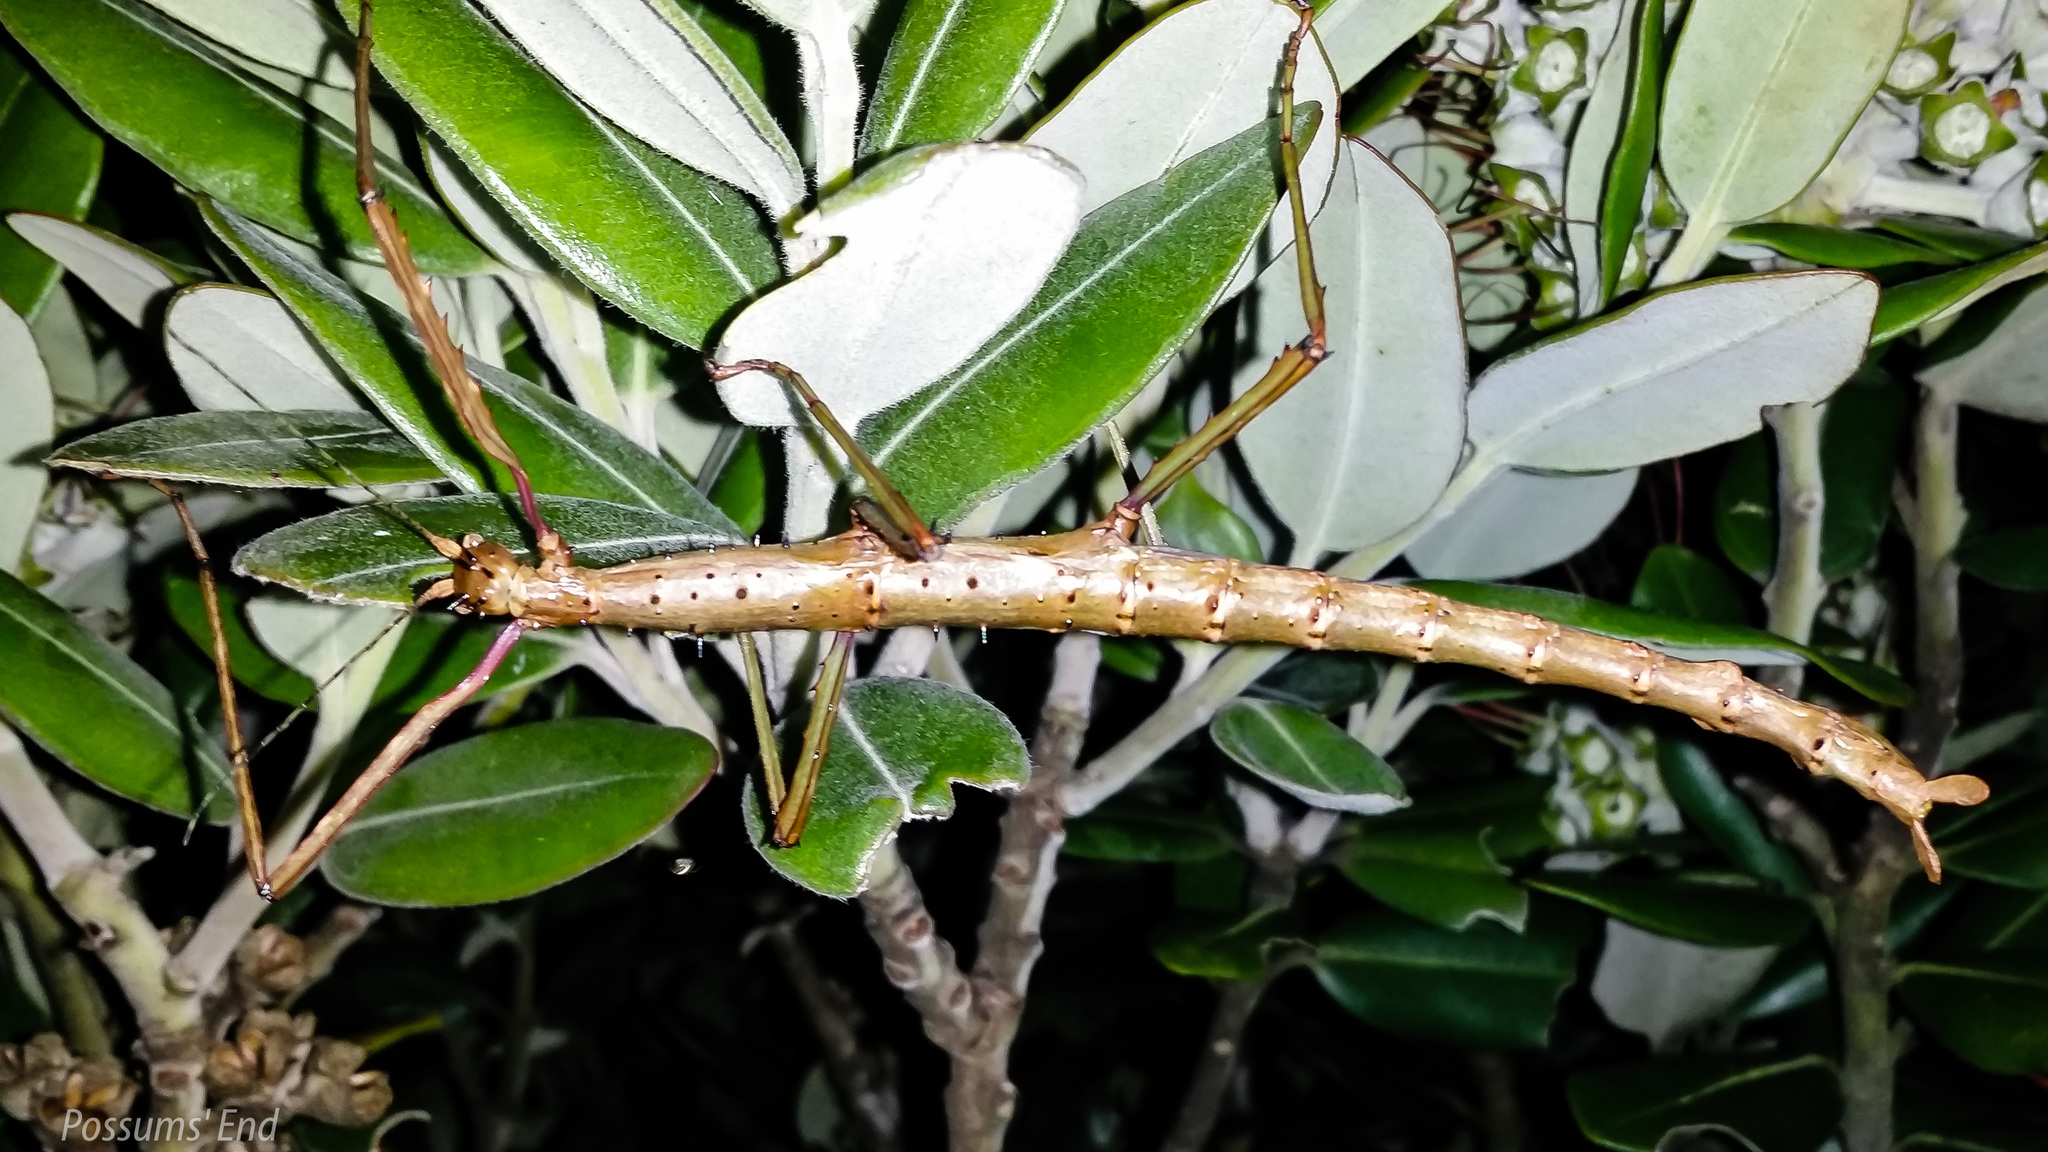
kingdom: Animalia
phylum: Arthropoda
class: Insecta
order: Phasmida
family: Phasmatidae
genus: Acanthoxyla
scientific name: Acanthoxyla geisovii
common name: Prickly stick insect
